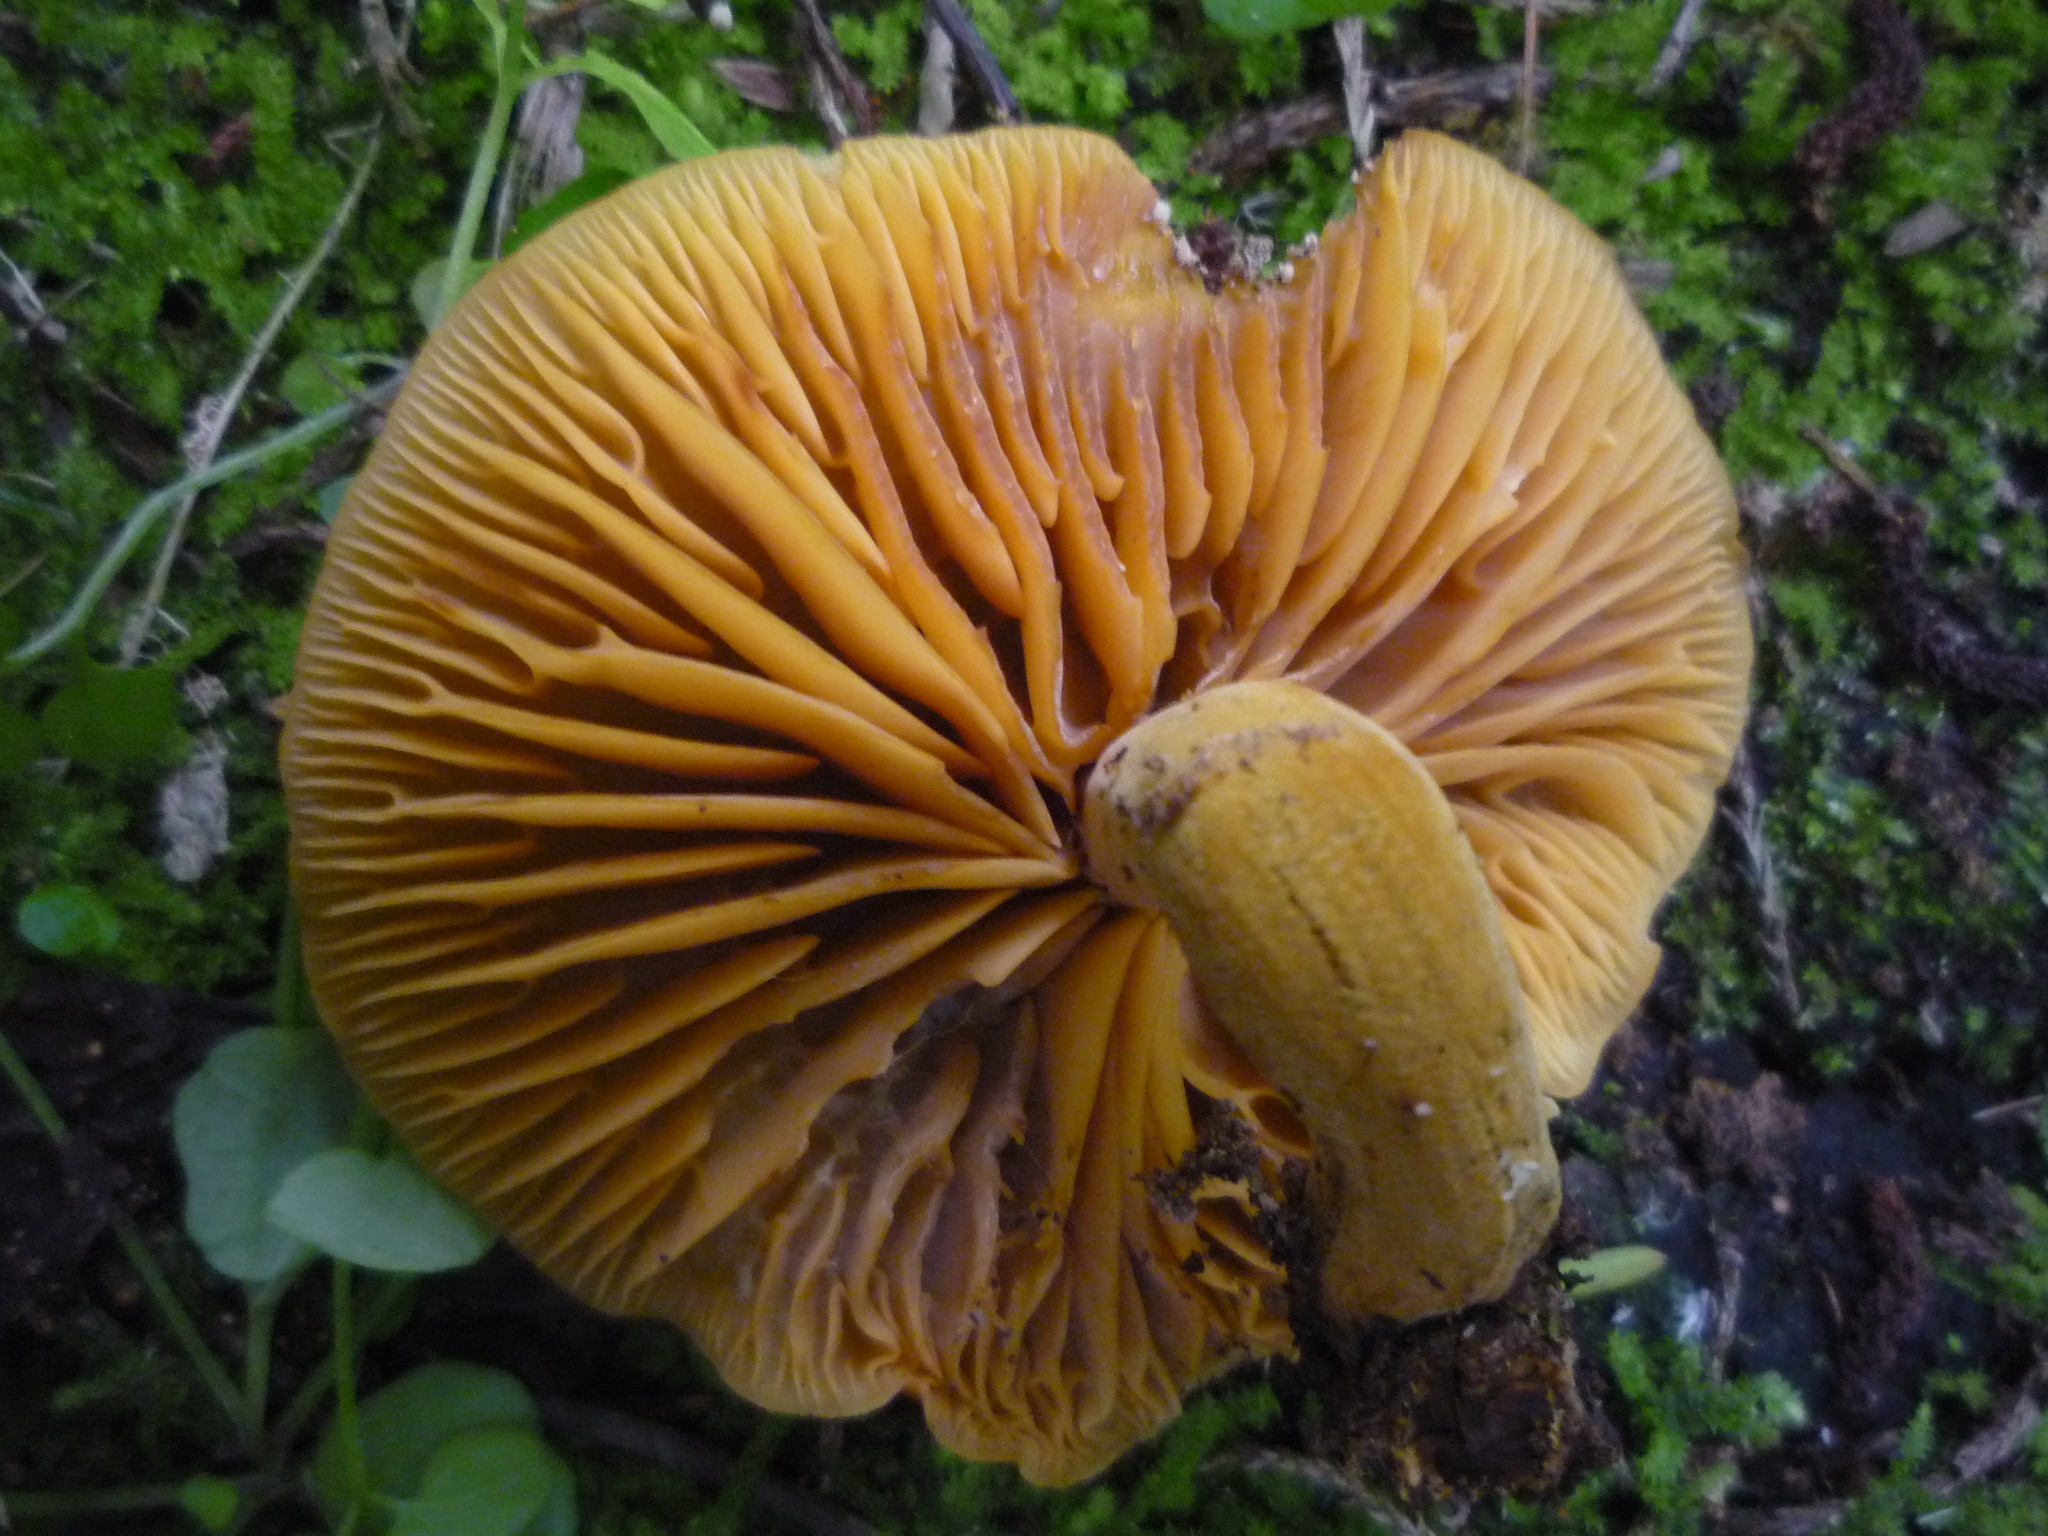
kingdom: Fungi
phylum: Basidiomycota
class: Agaricomycetes
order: Agaricales
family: Mycenaceae
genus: Heimiomyces
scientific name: Heimiomyces velutipes
